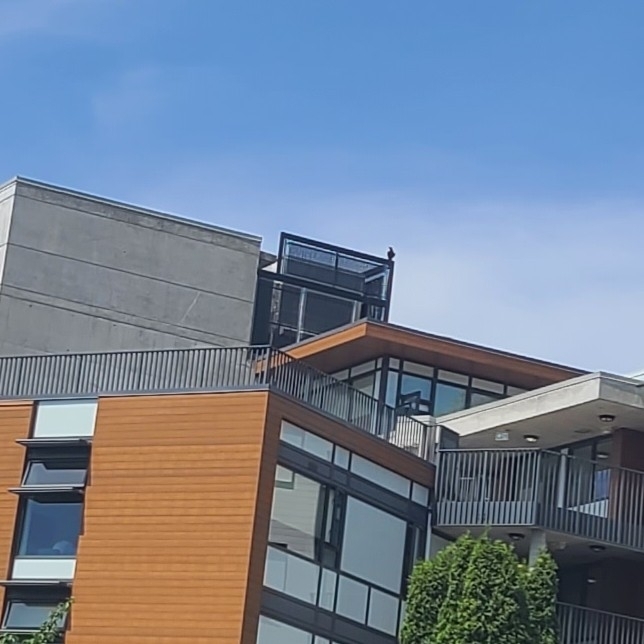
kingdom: Animalia
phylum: Chordata
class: Aves
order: Passeriformes
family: Corvidae
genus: Corvus
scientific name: Corvus corax
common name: Common raven
